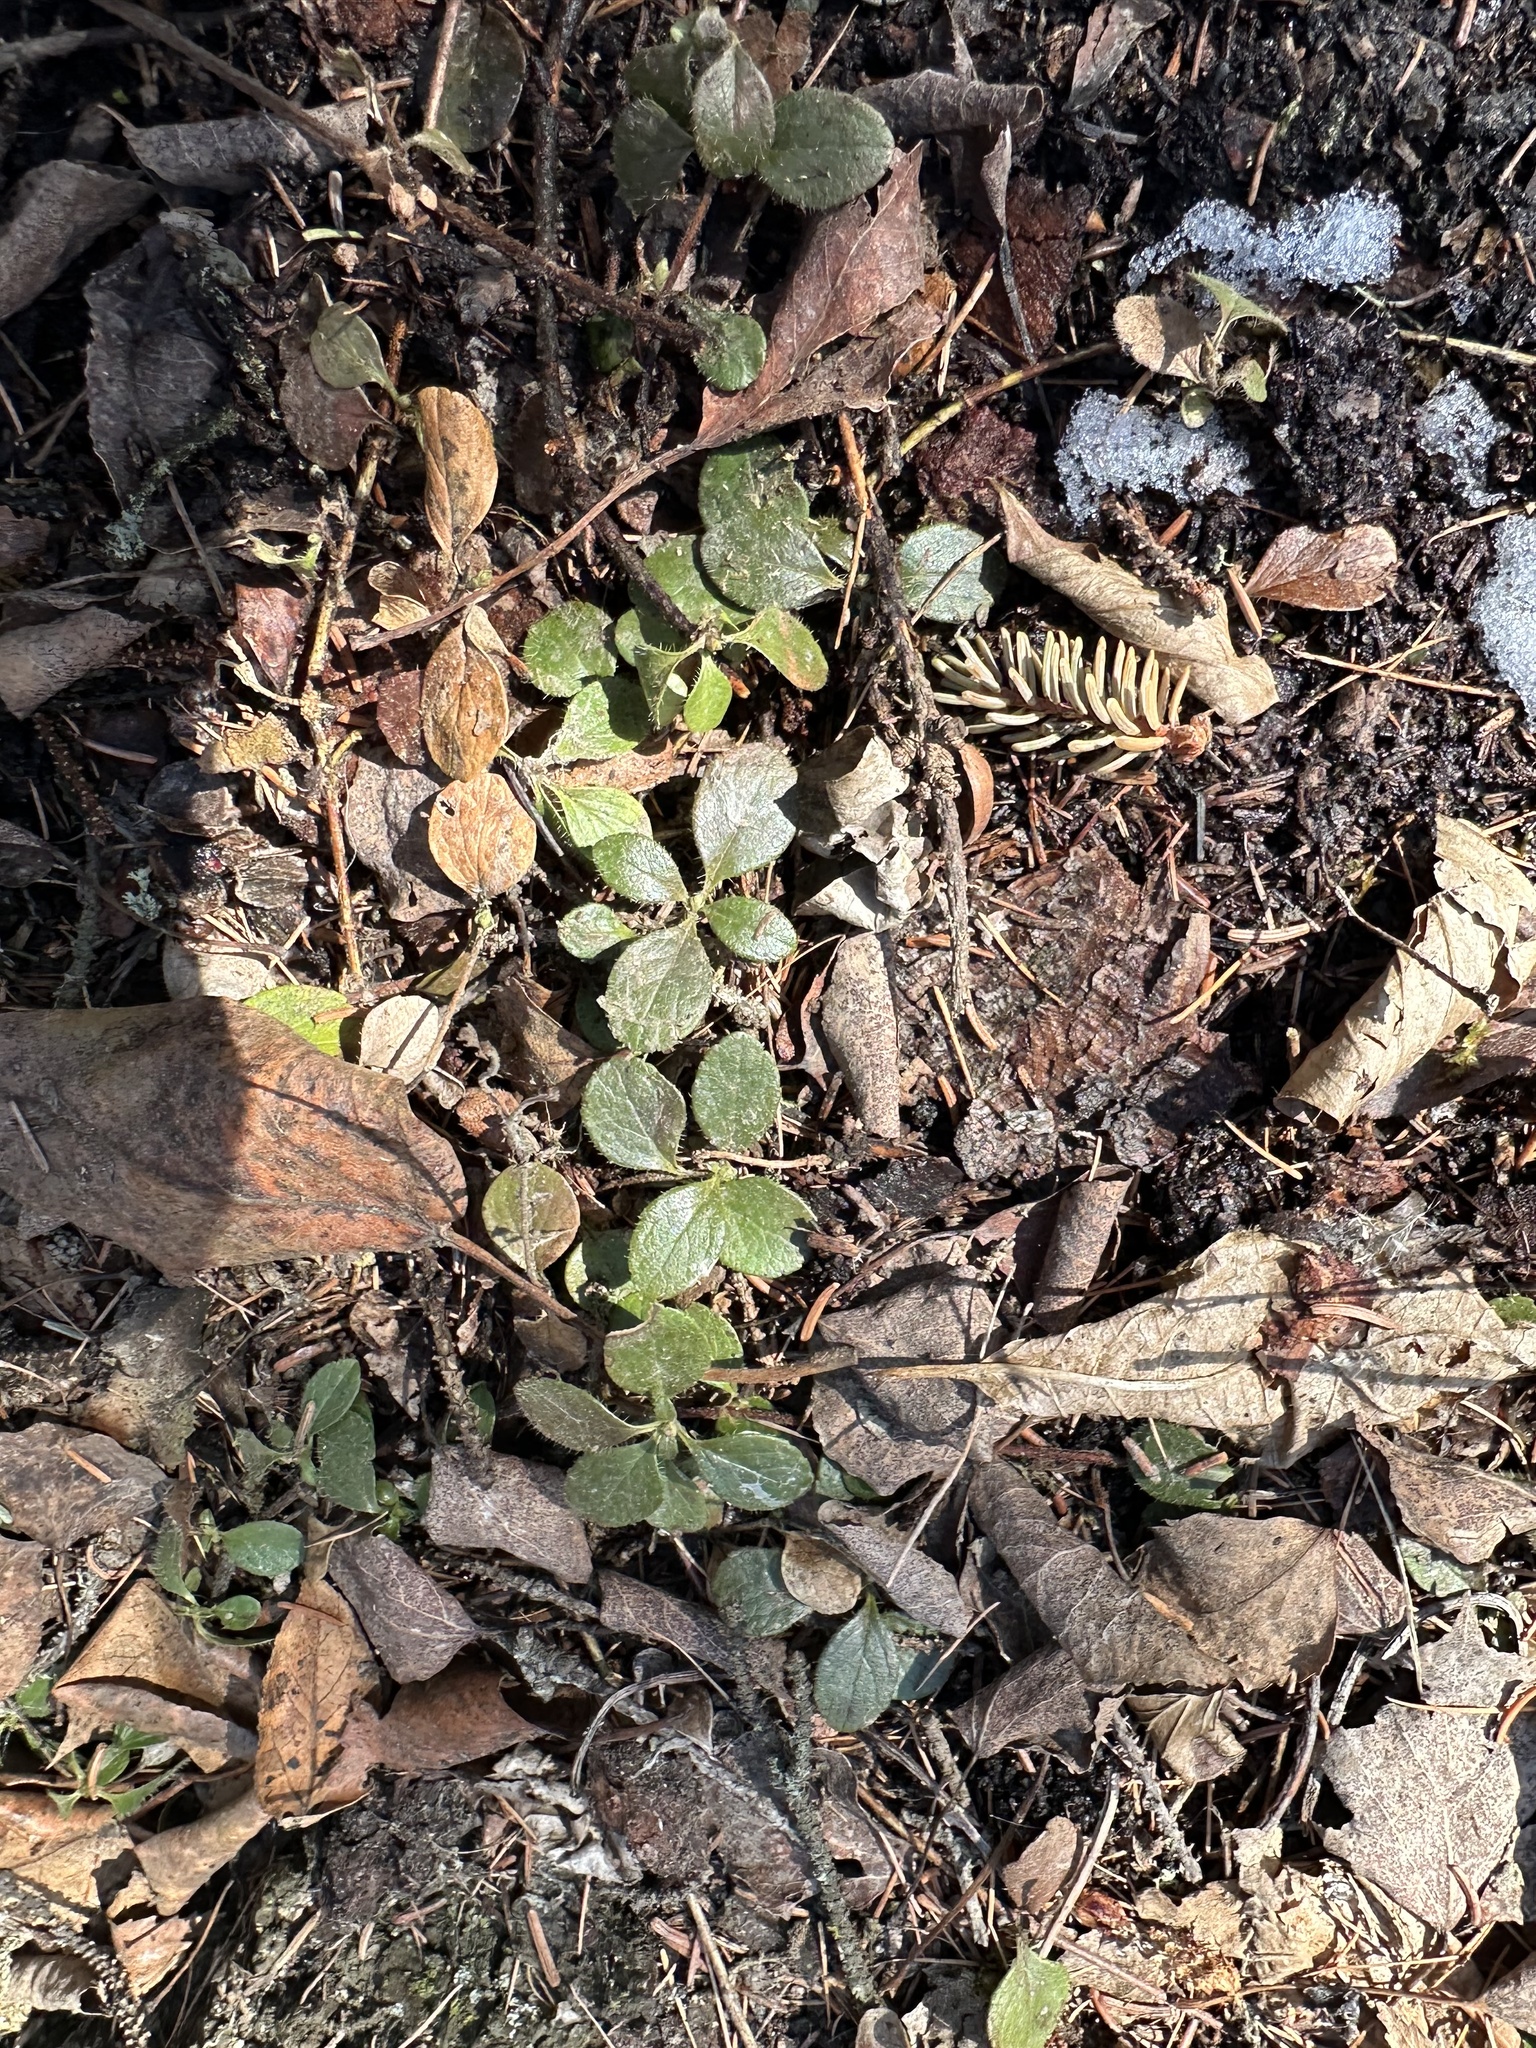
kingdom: Plantae
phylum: Tracheophyta
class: Magnoliopsida
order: Dipsacales
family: Caprifoliaceae
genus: Linnaea
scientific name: Linnaea borealis
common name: Twinflower
